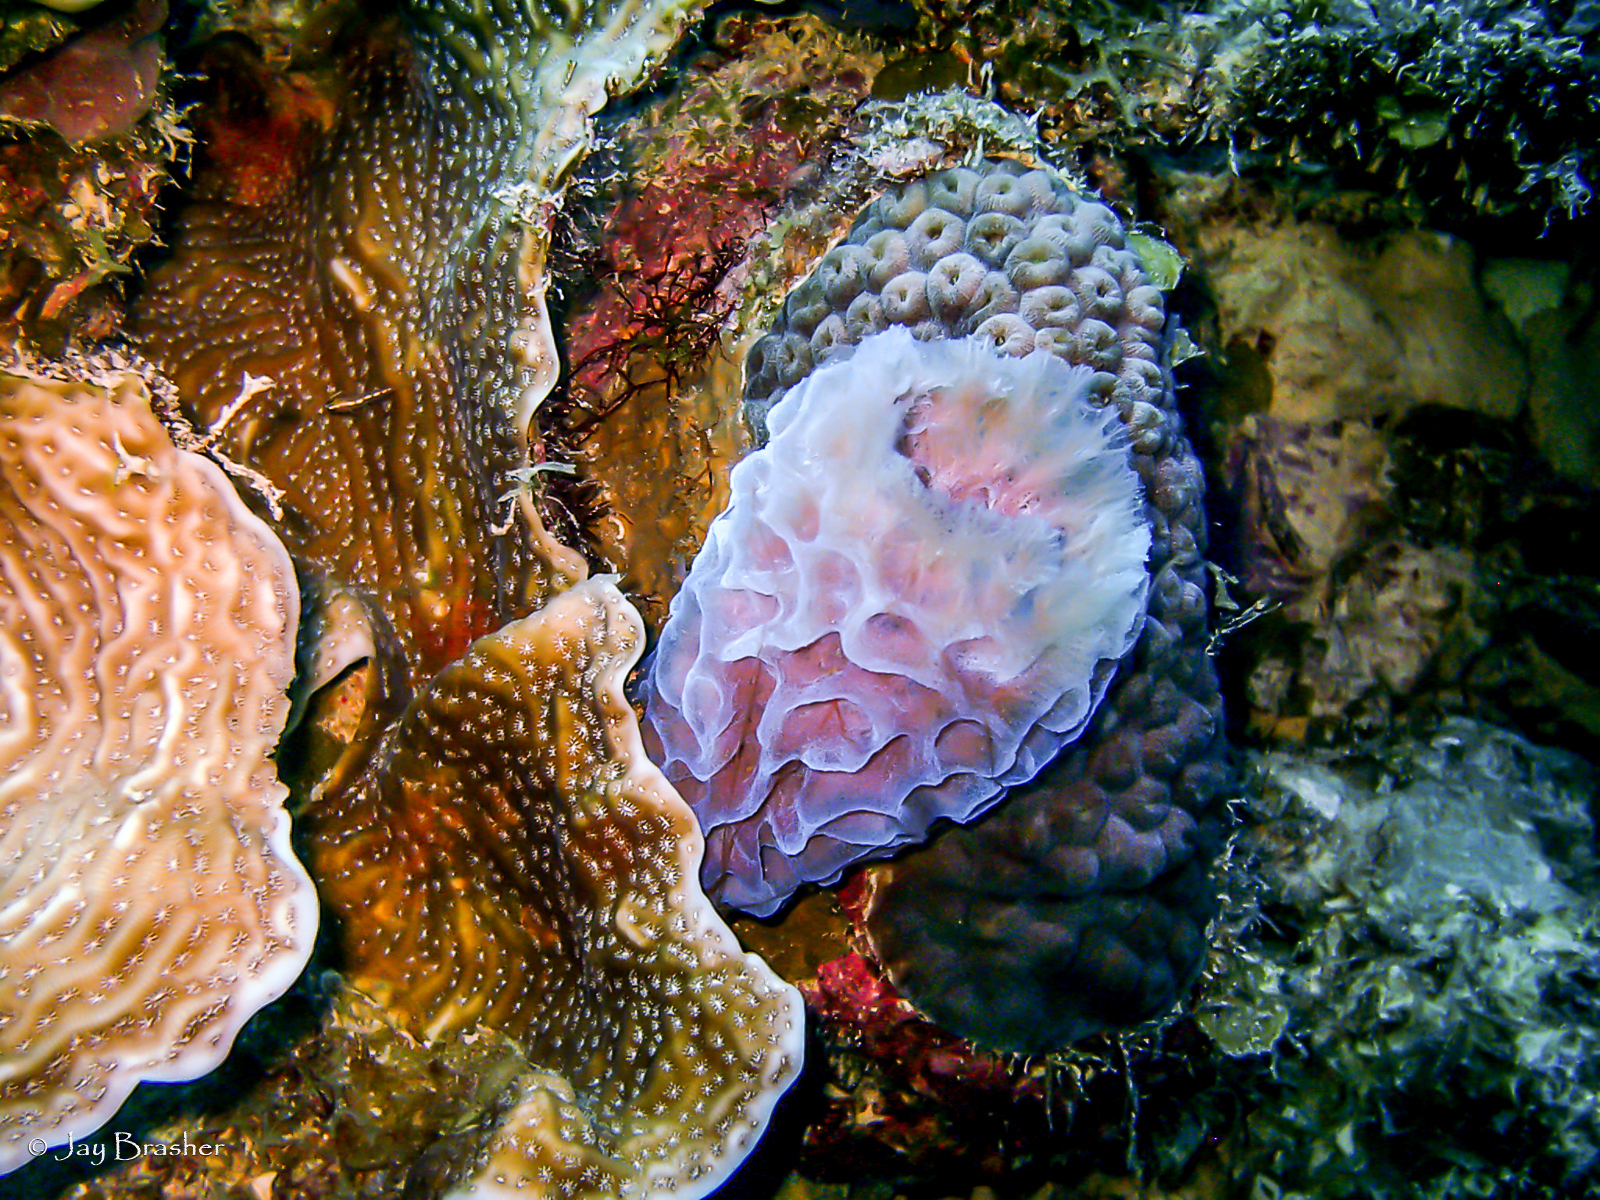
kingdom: Animalia
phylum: Porifera
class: Demospongiae
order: Haplosclerida
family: Callyspongiidae
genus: Callyspongia
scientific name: Callyspongia plicifera
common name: Azure vase sponge
